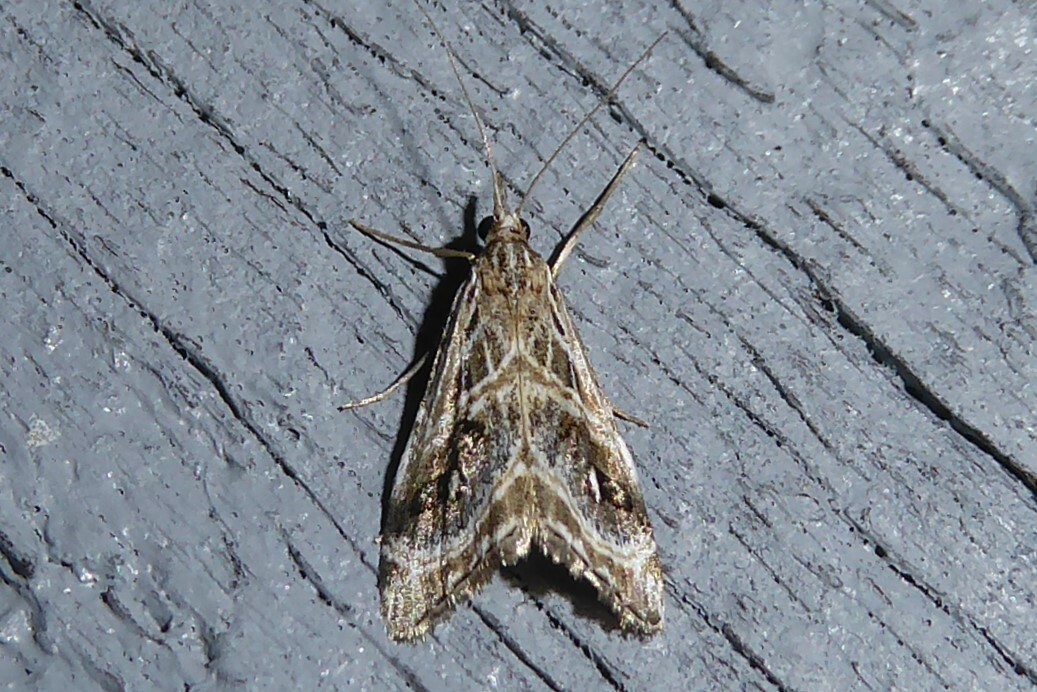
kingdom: Animalia
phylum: Arthropoda
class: Insecta
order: Lepidoptera
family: Crambidae
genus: Gadira
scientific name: Gadira acerella
